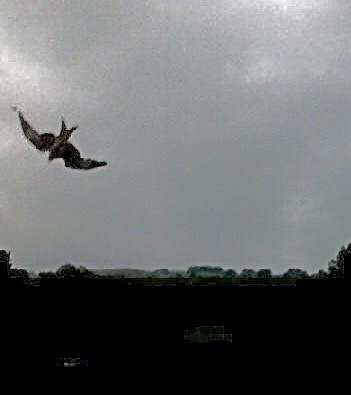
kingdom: Animalia
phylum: Chordata
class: Aves
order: Accipitriformes
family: Accipitridae
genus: Milvus
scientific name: Milvus milvus
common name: Red kite
